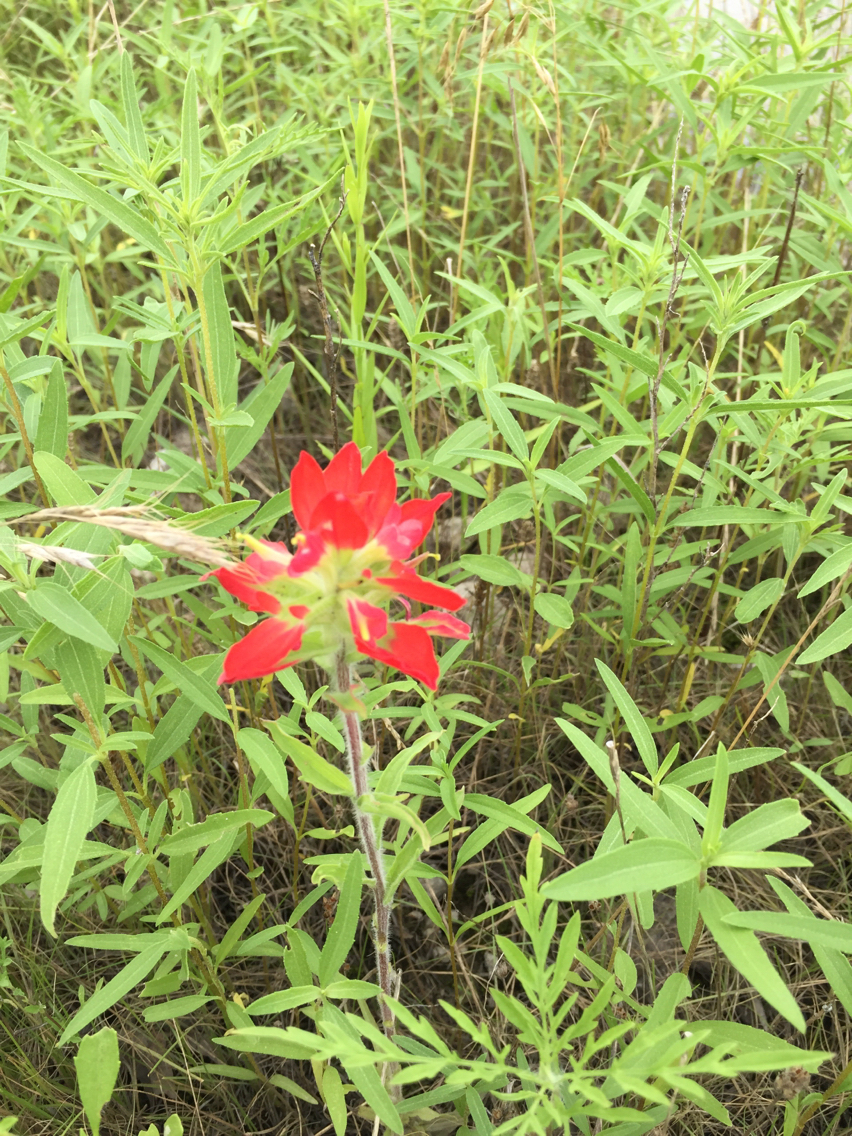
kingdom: Plantae
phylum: Tracheophyta
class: Magnoliopsida
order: Lamiales
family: Orobanchaceae
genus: Castilleja
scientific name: Castilleja indivisa
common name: Texas paintbrush
